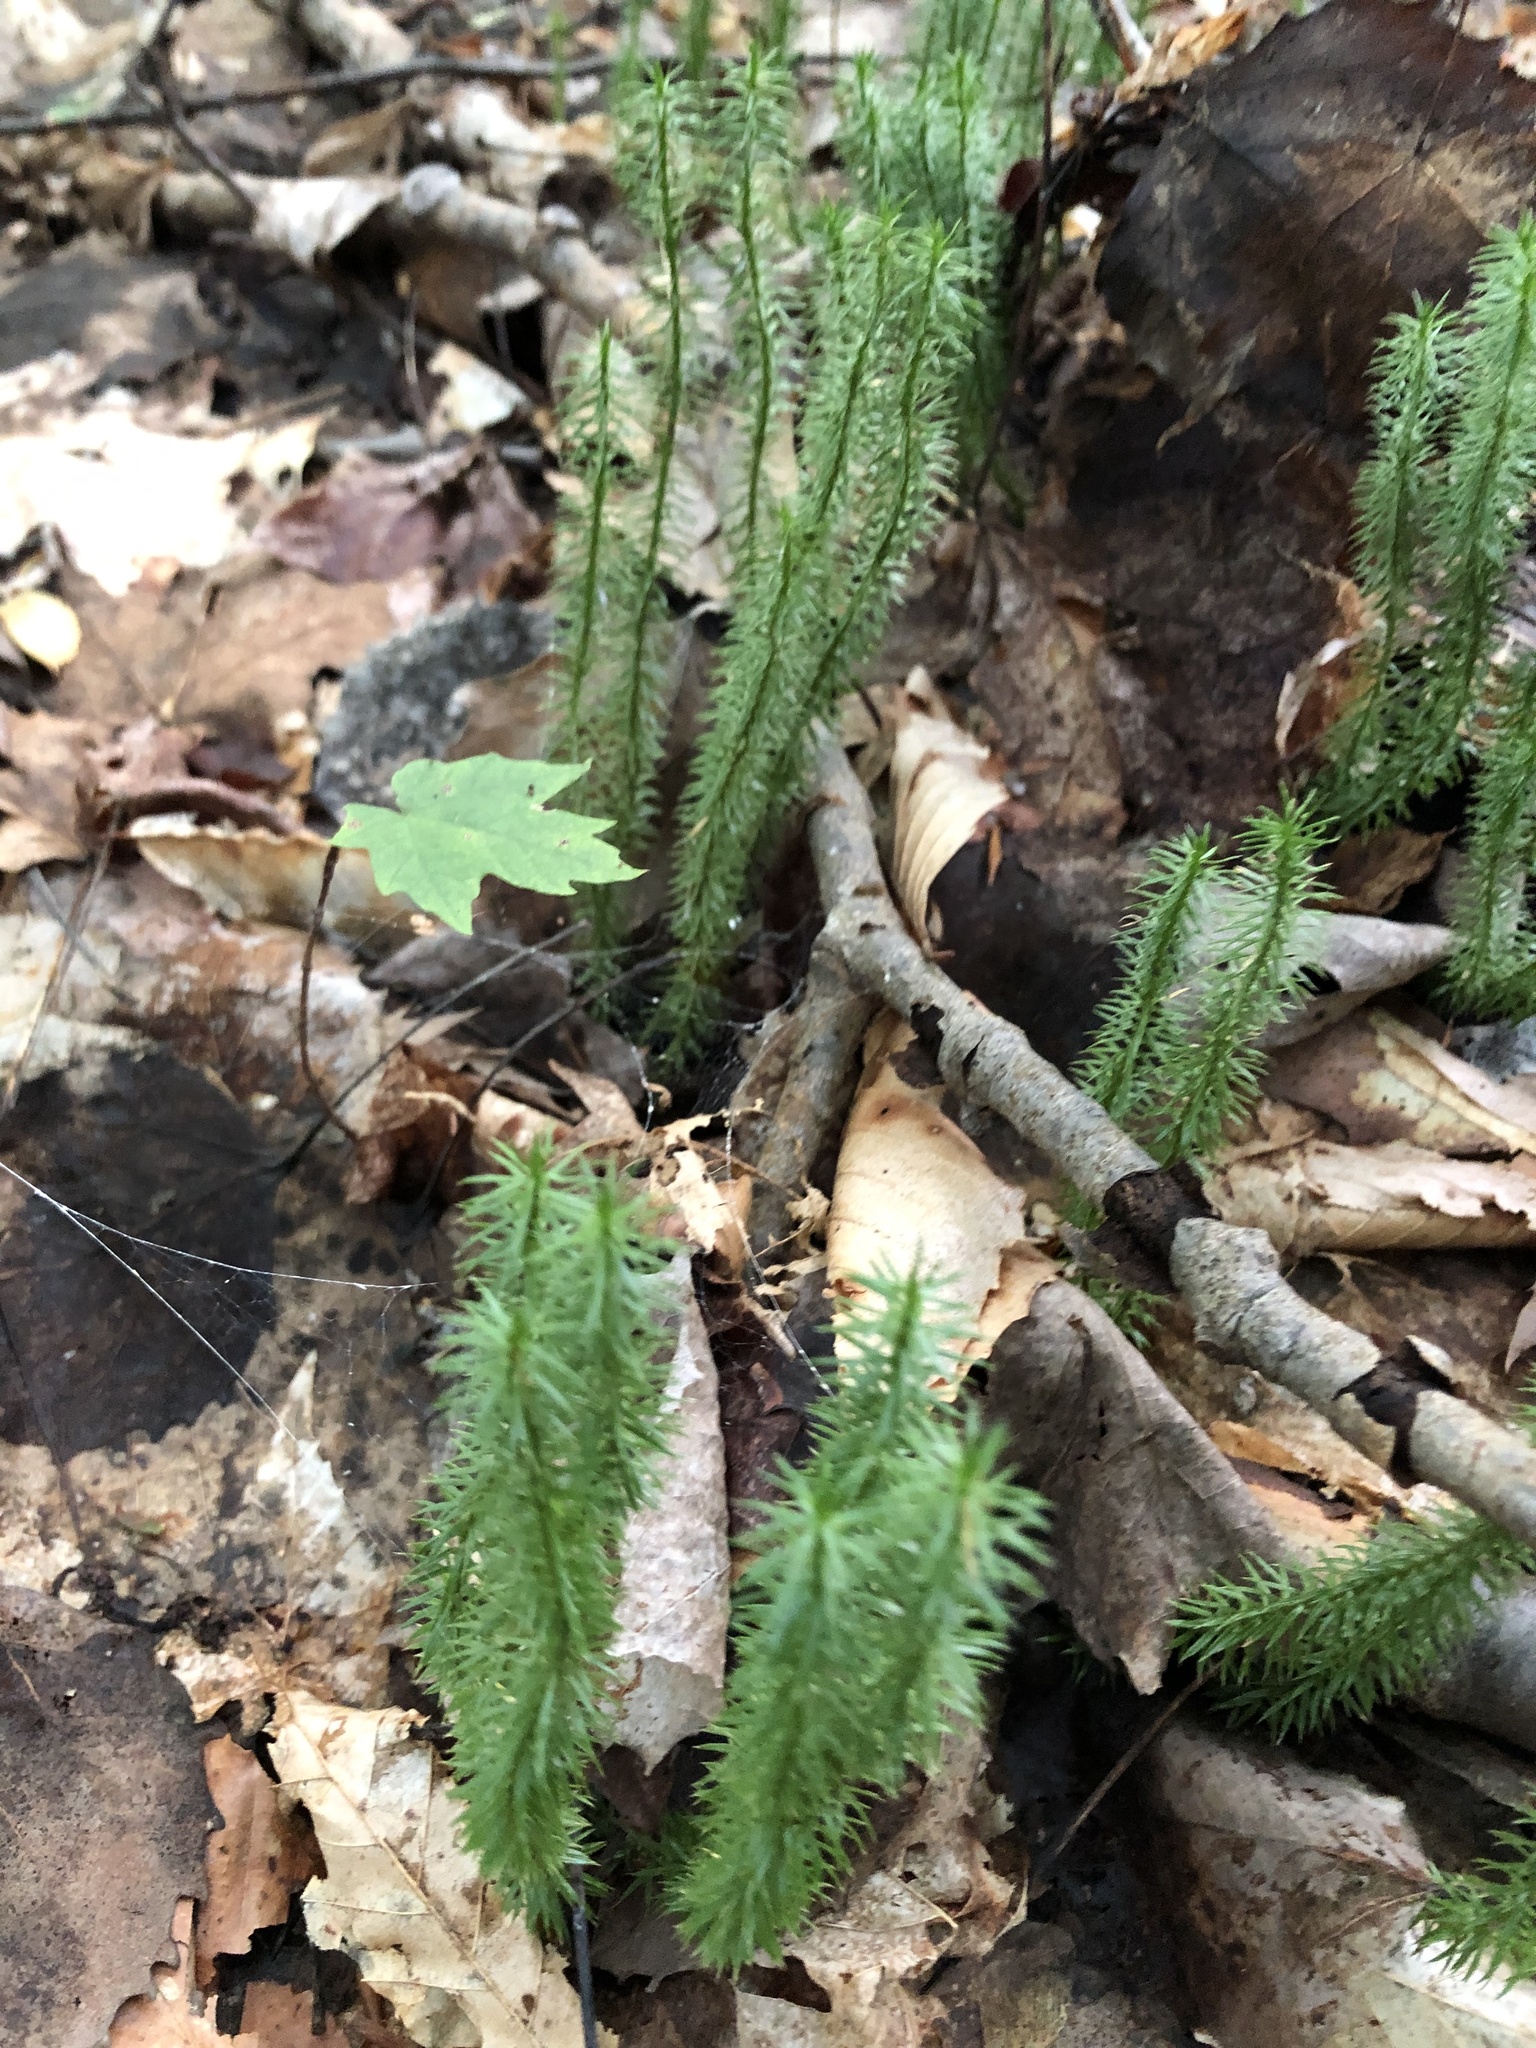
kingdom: Plantae
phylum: Tracheophyta
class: Lycopodiopsida
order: Lycopodiales
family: Lycopodiaceae
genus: Spinulum
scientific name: Spinulum annotinum
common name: Interrupted club-moss
